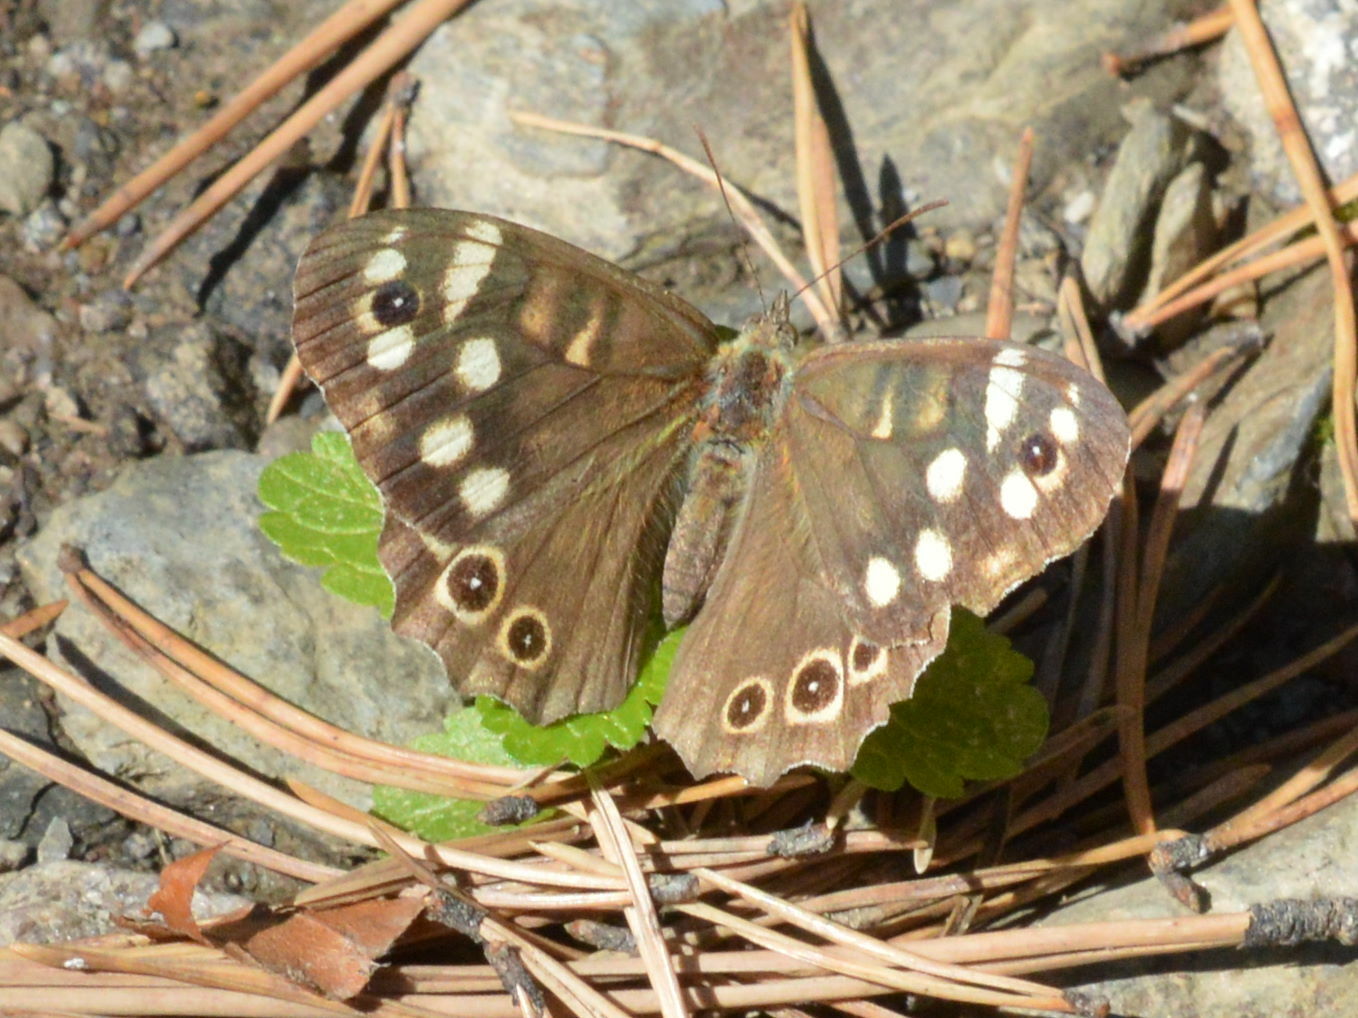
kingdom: Animalia
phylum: Arthropoda
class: Insecta
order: Lepidoptera
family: Nymphalidae
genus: Pararge
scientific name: Pararge aegeria
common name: Speckled wood
